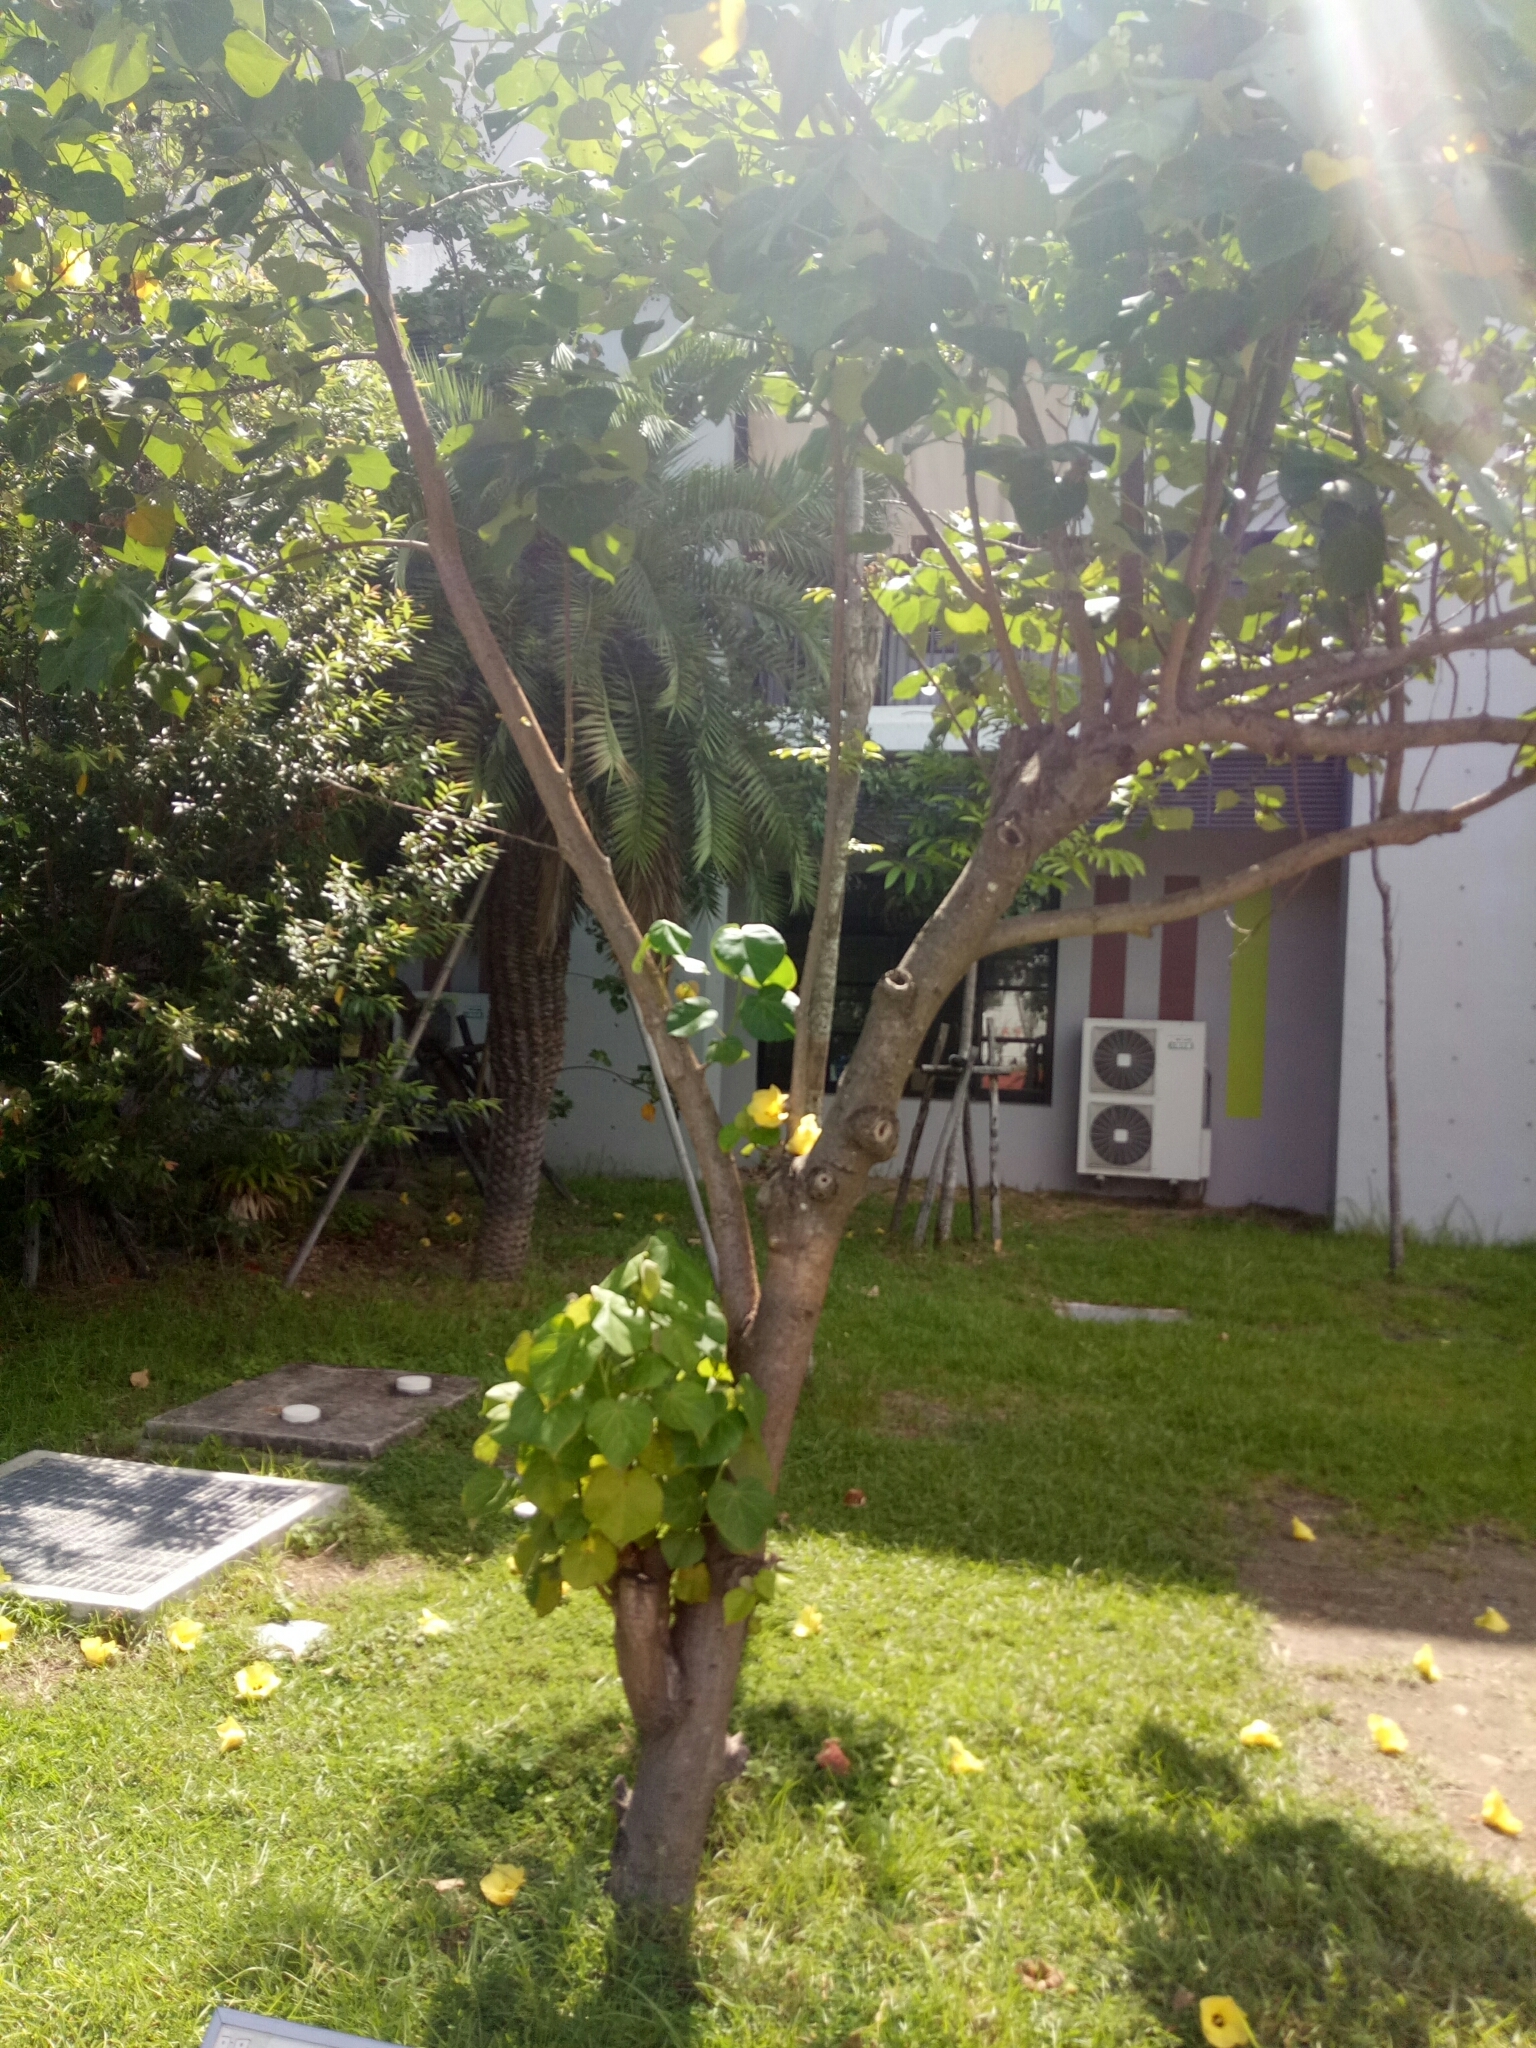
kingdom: Plantae
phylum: Tracheophyta
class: Magnoliopsida
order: Malvales
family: Malvaceae
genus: Talipariti
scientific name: Talipariti tiliaceum
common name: Sea hibiscus
